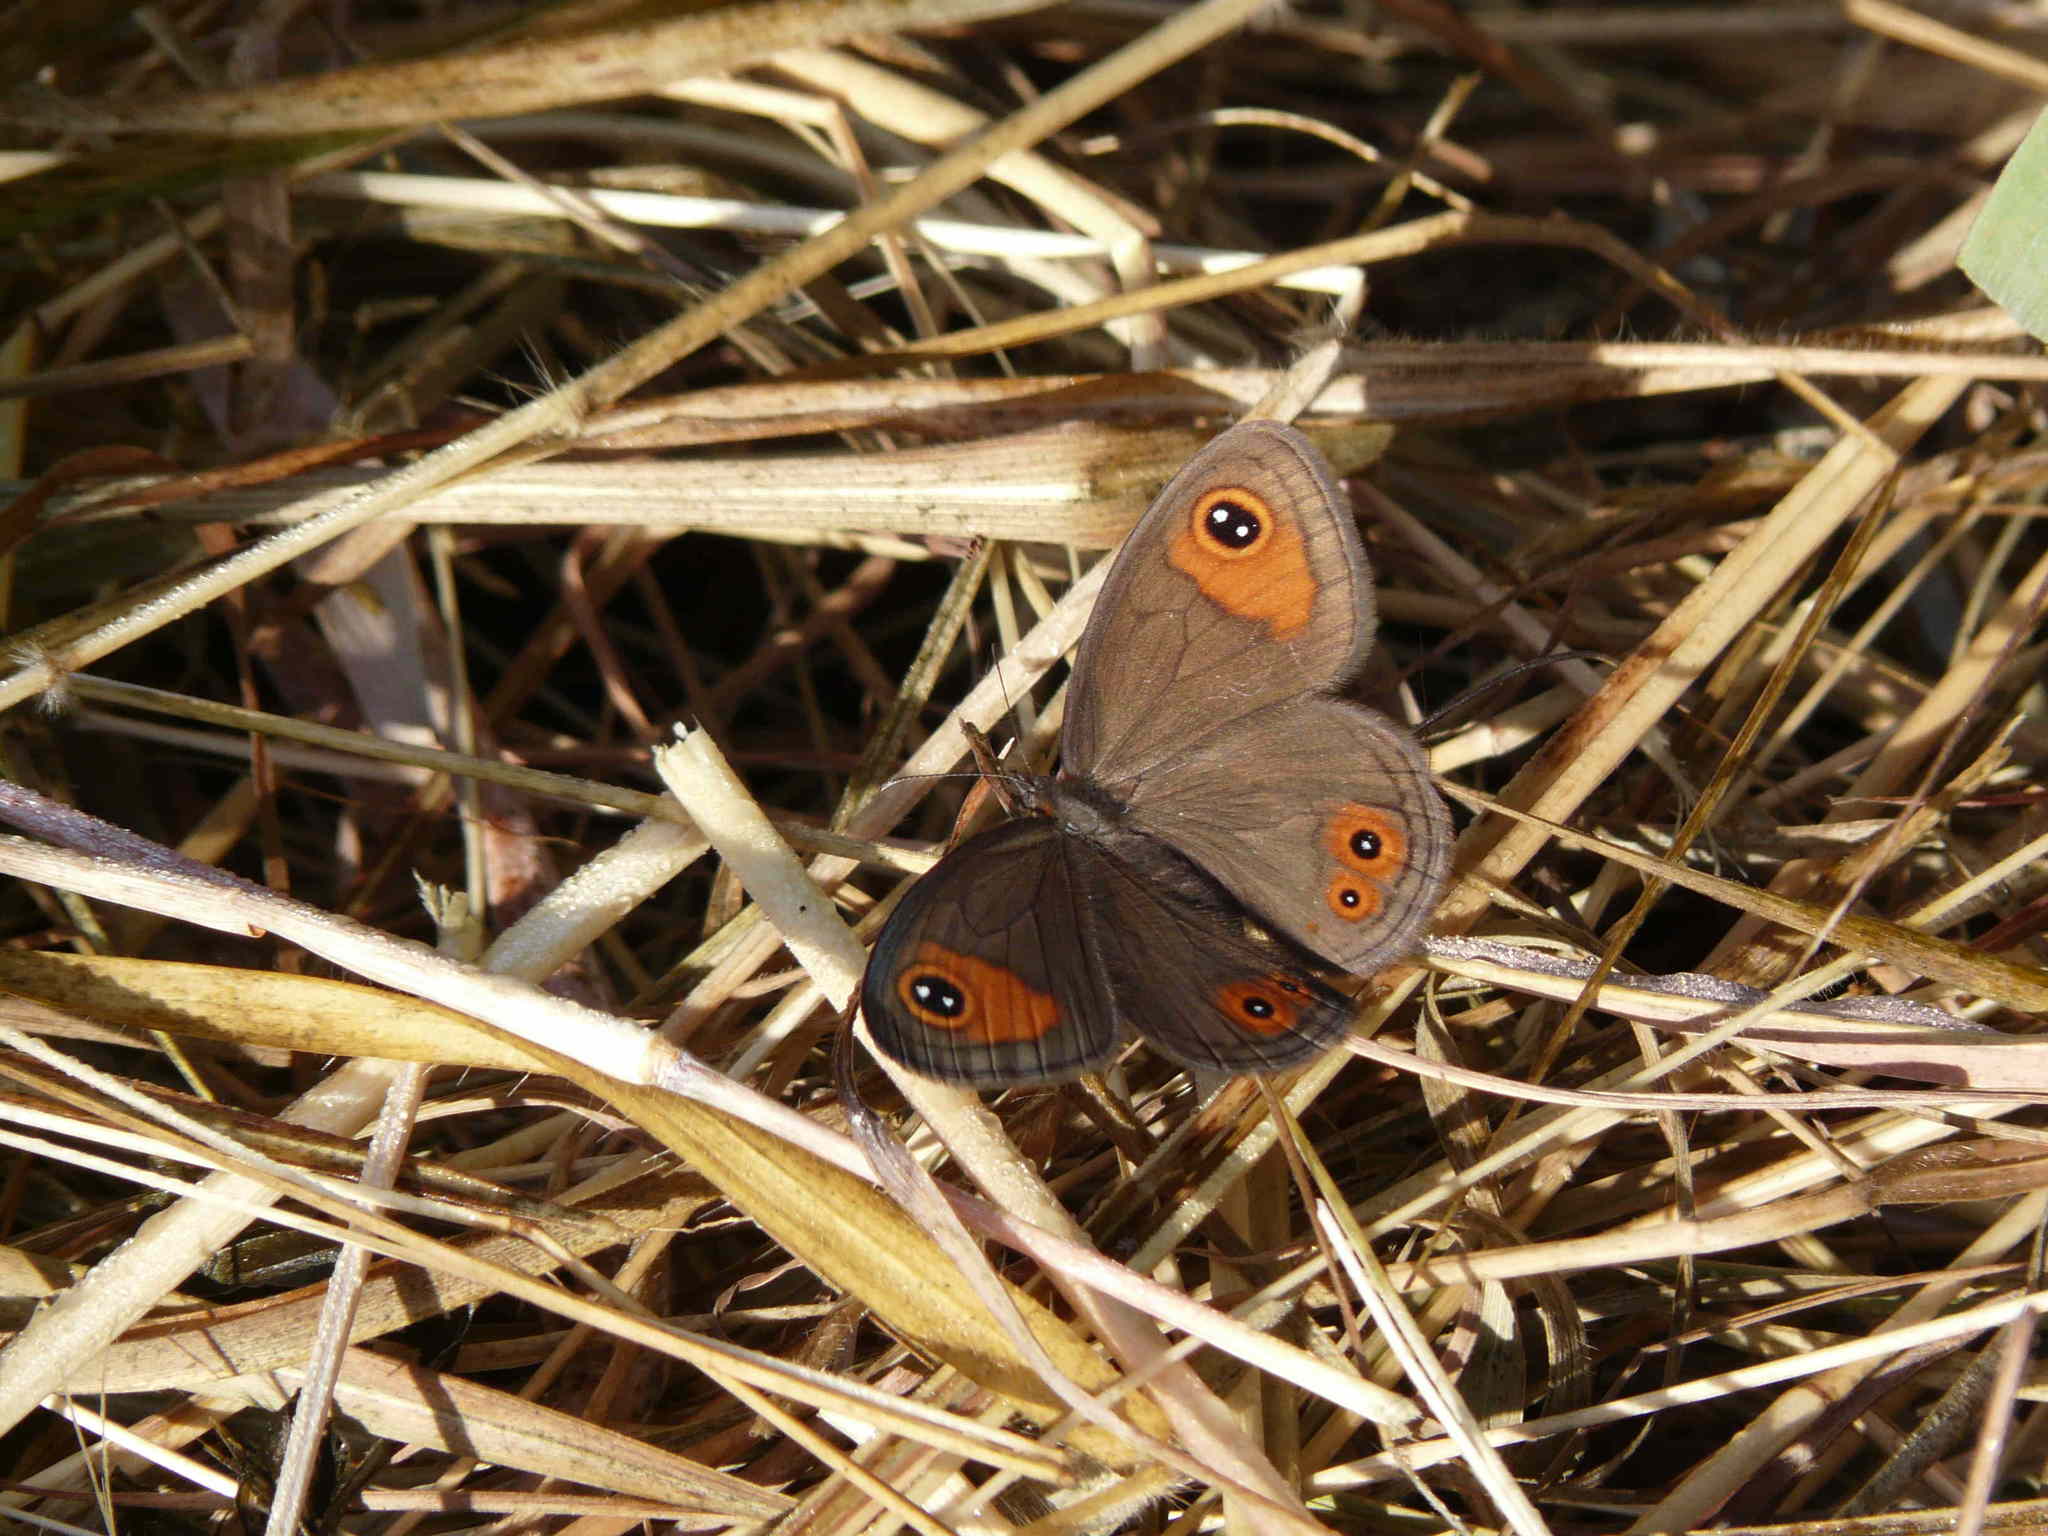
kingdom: Animalia
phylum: Arthropoda
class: Insecta
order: Lepidoptera
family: Nymphalidae
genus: Neita
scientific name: Neita extensa
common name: Savanna brown
